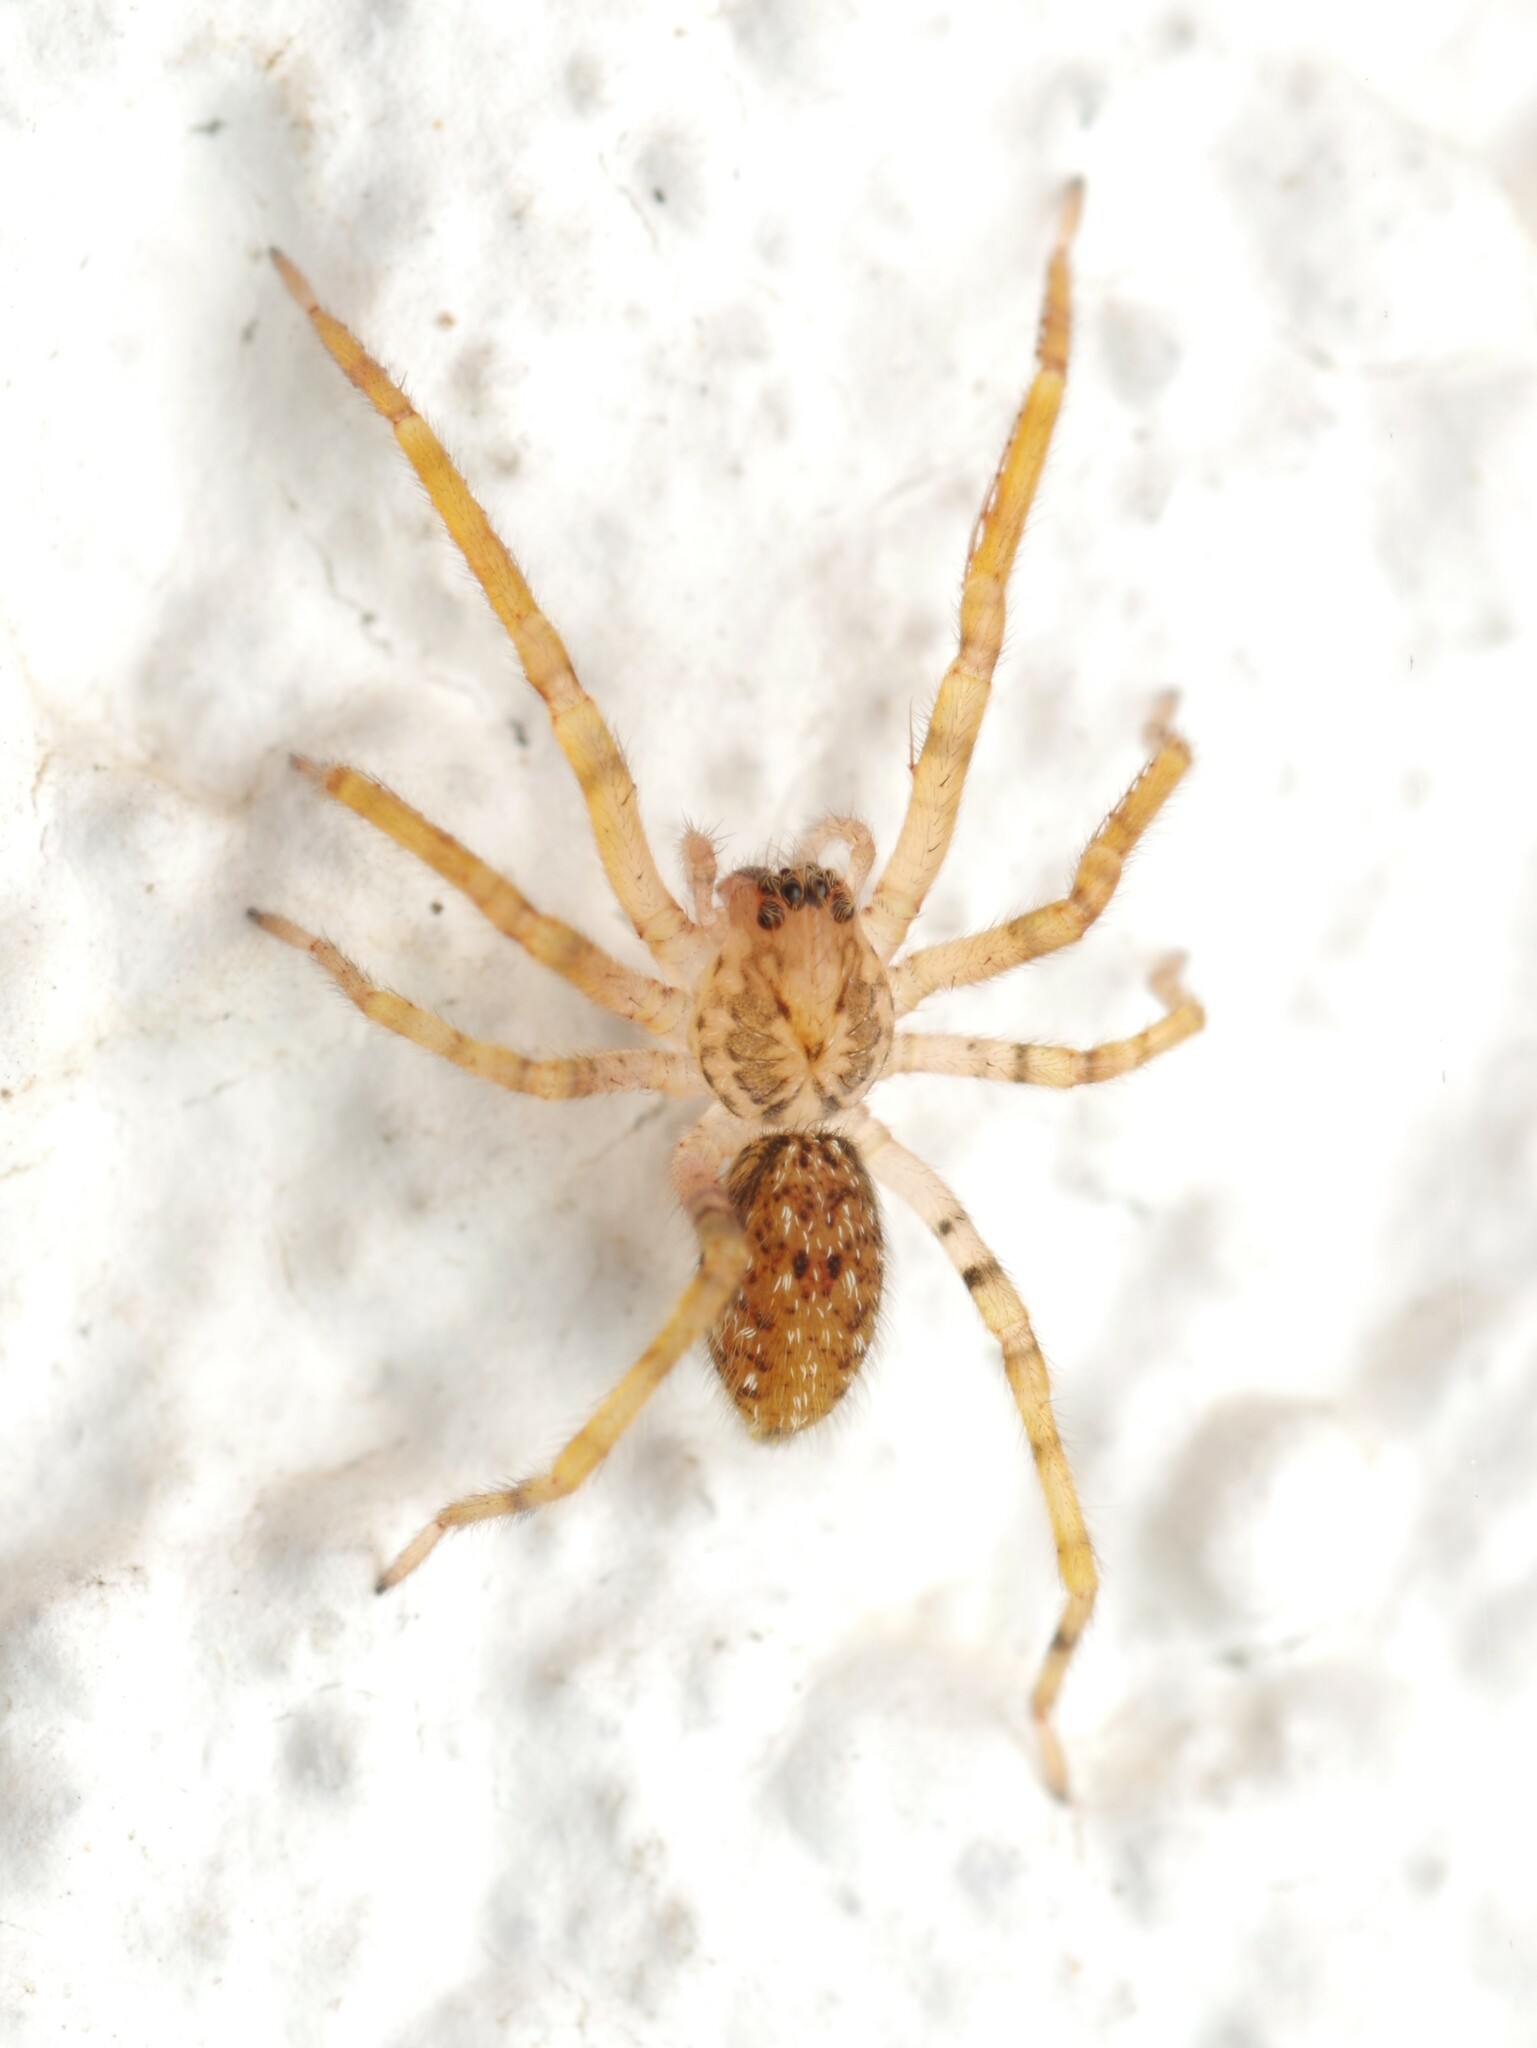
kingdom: Animalia
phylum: Arthropoda
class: Arachnida
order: Araneae
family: Zoropsidae
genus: Zoropsis
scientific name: Zoropsis spinimana
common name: Zoropsid spider
